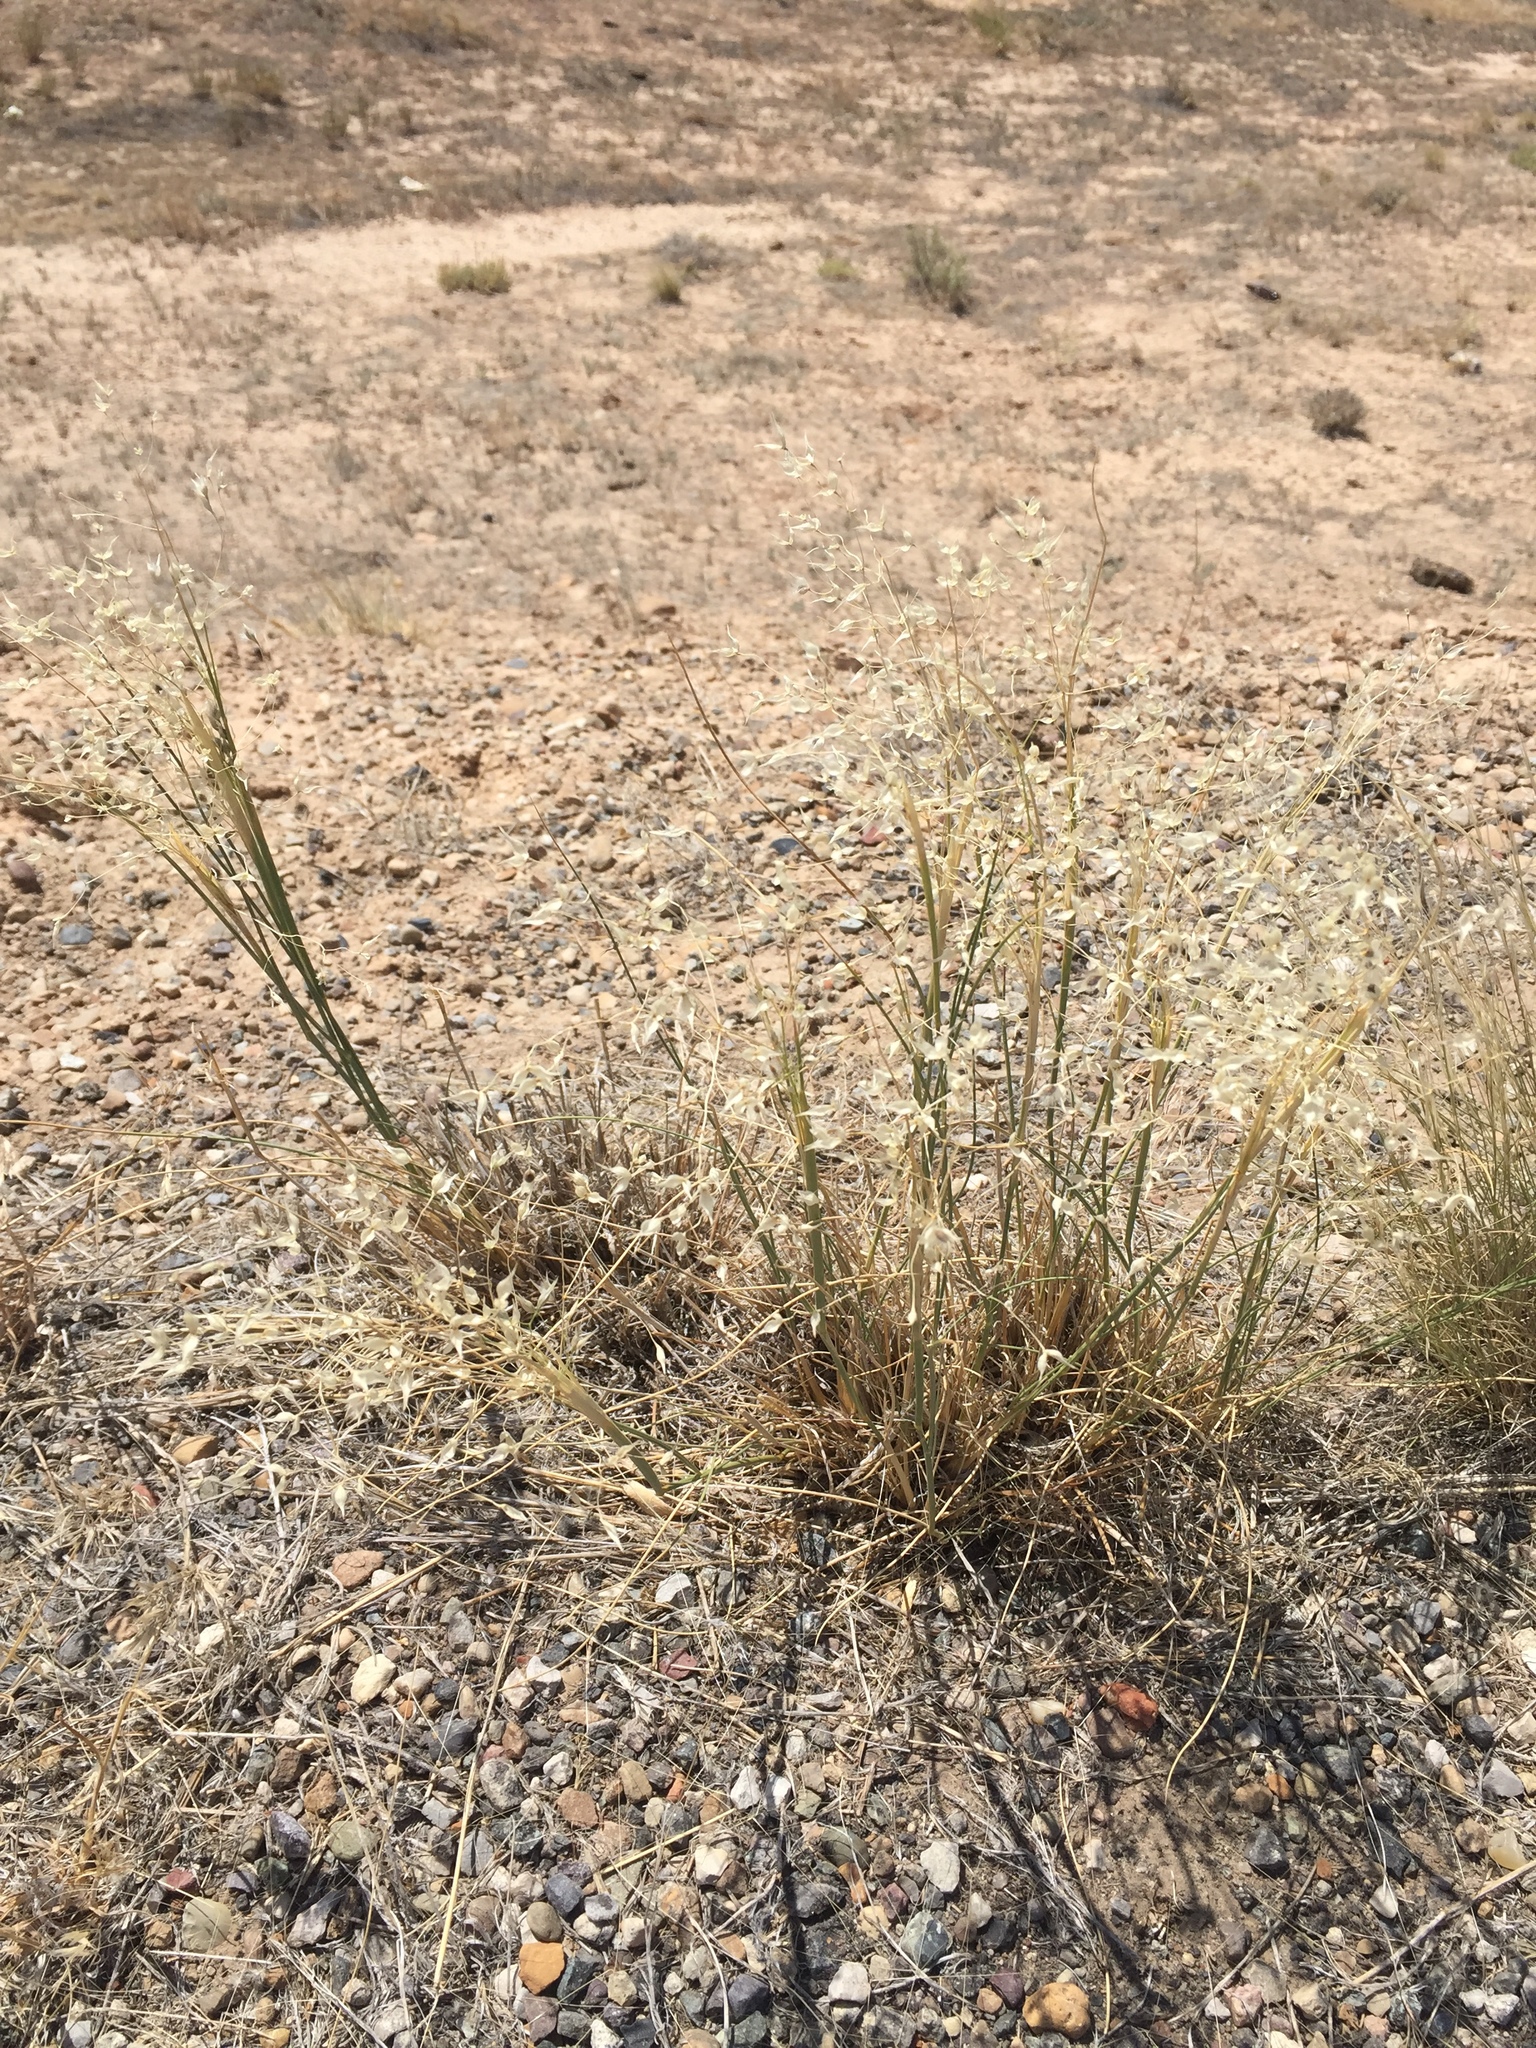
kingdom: Plantae
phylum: Tracheophyta
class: Liliopsida
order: Poales
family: Poaceae
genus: Eriocoma
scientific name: Eriocoma hymenoides
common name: Indian mountain ricegrass
